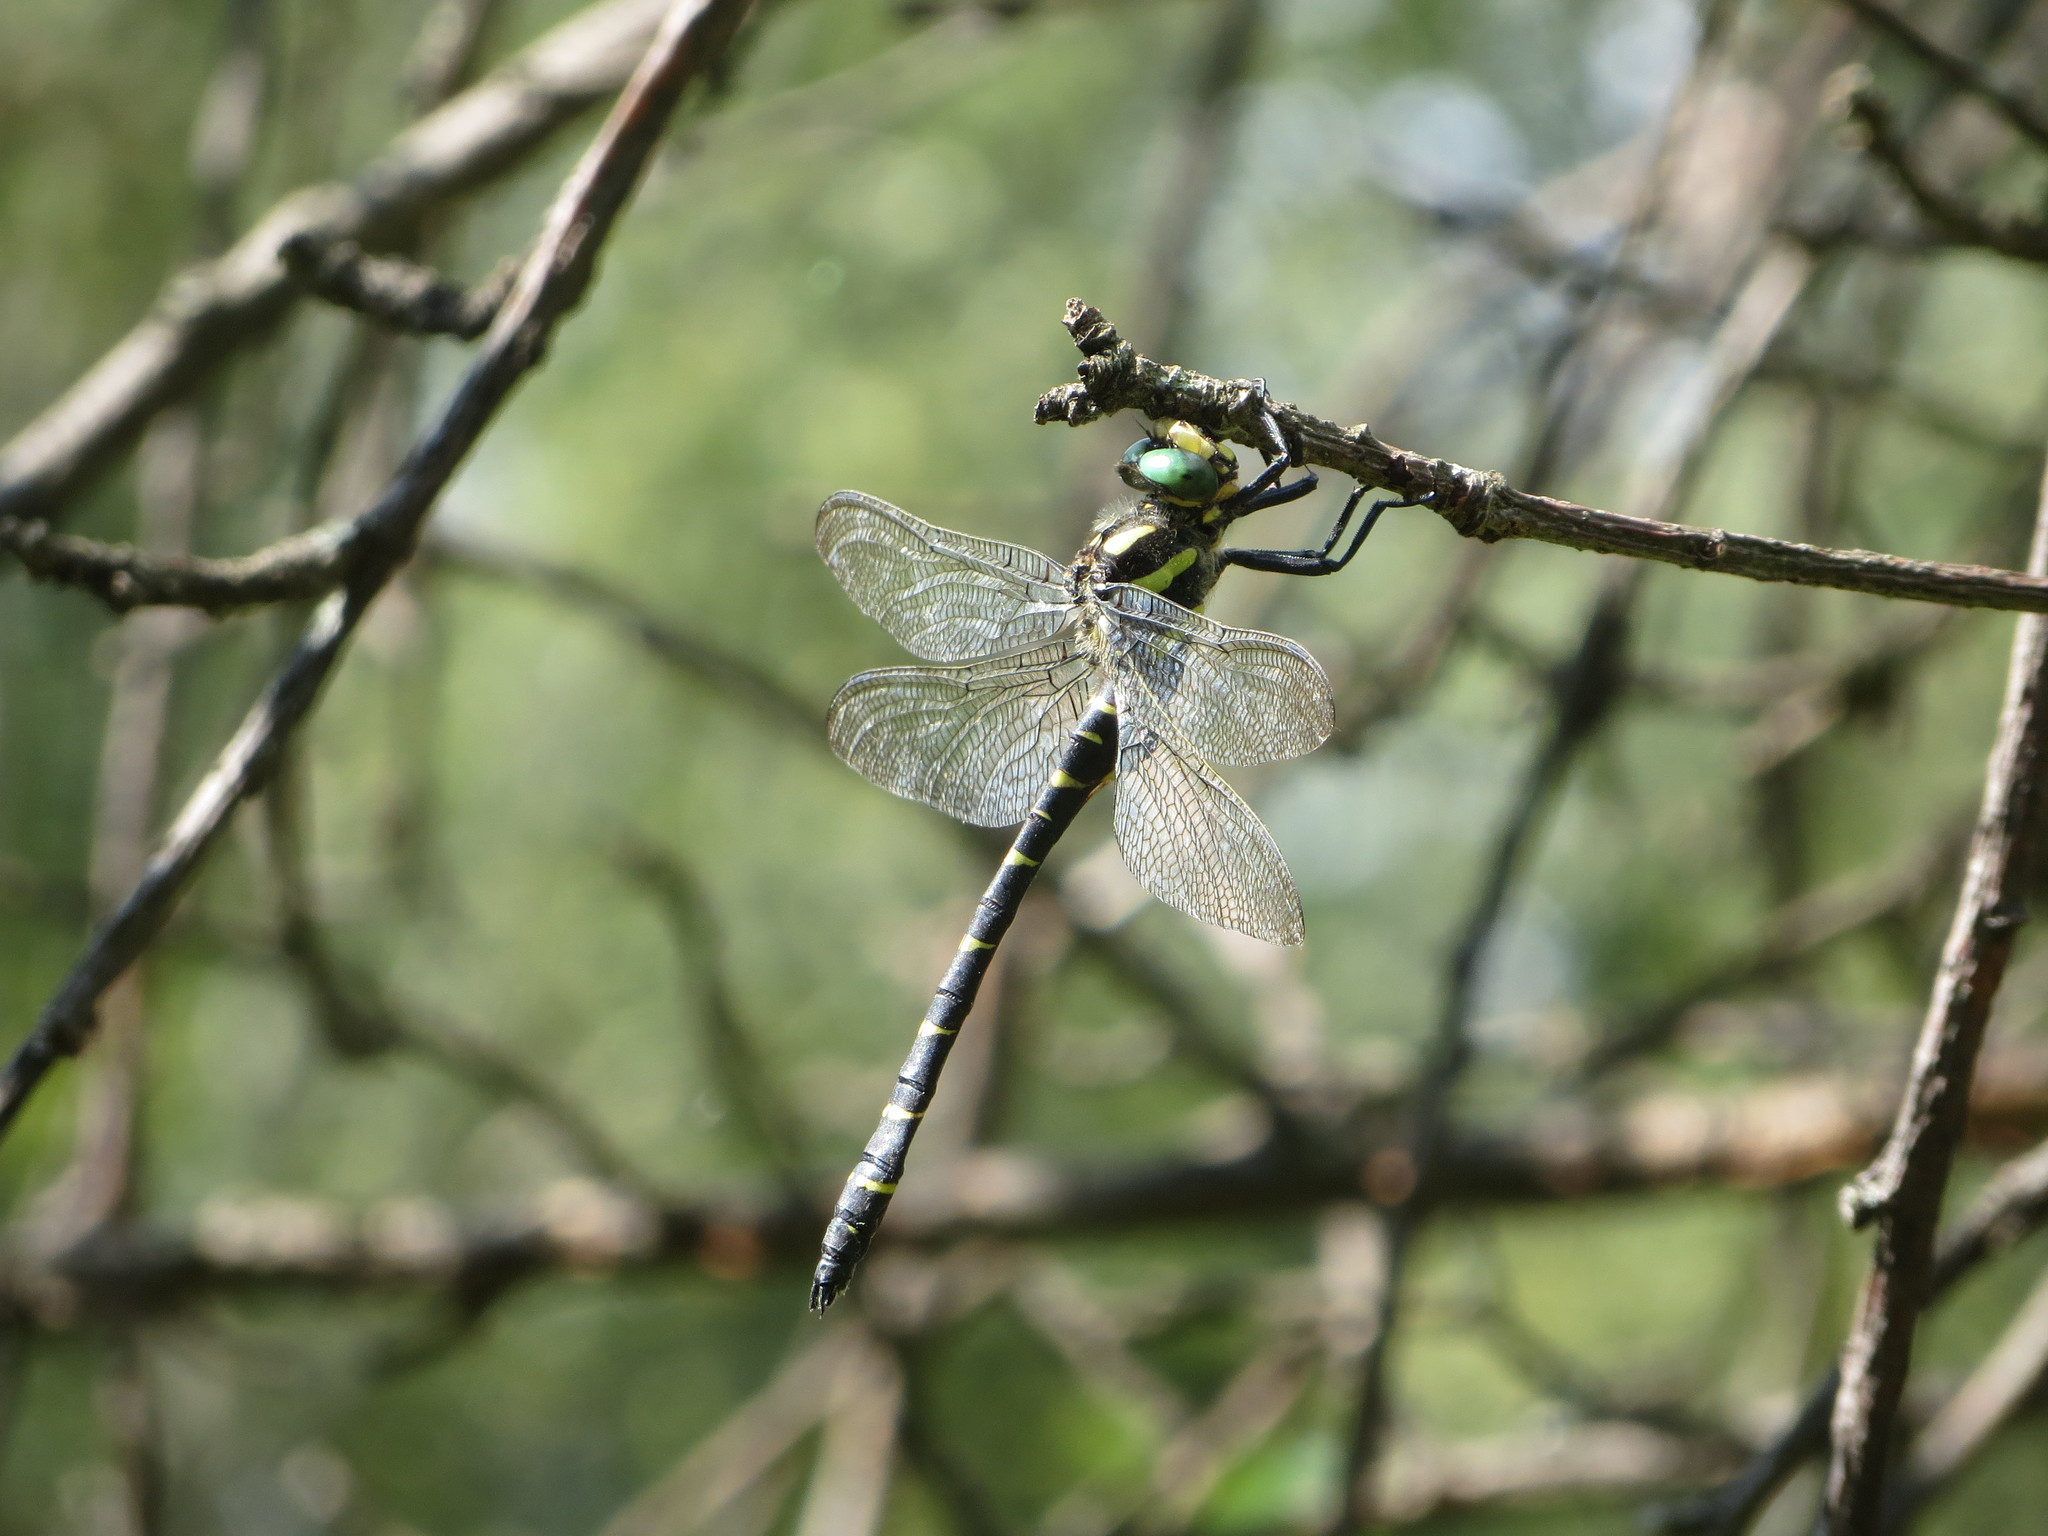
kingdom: Animalia
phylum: Arthropoda
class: Insecta
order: Odonata
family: Cordulegastridae
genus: Cordulegaster
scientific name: Cordulegaster bidentata
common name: Sombre goldenring
